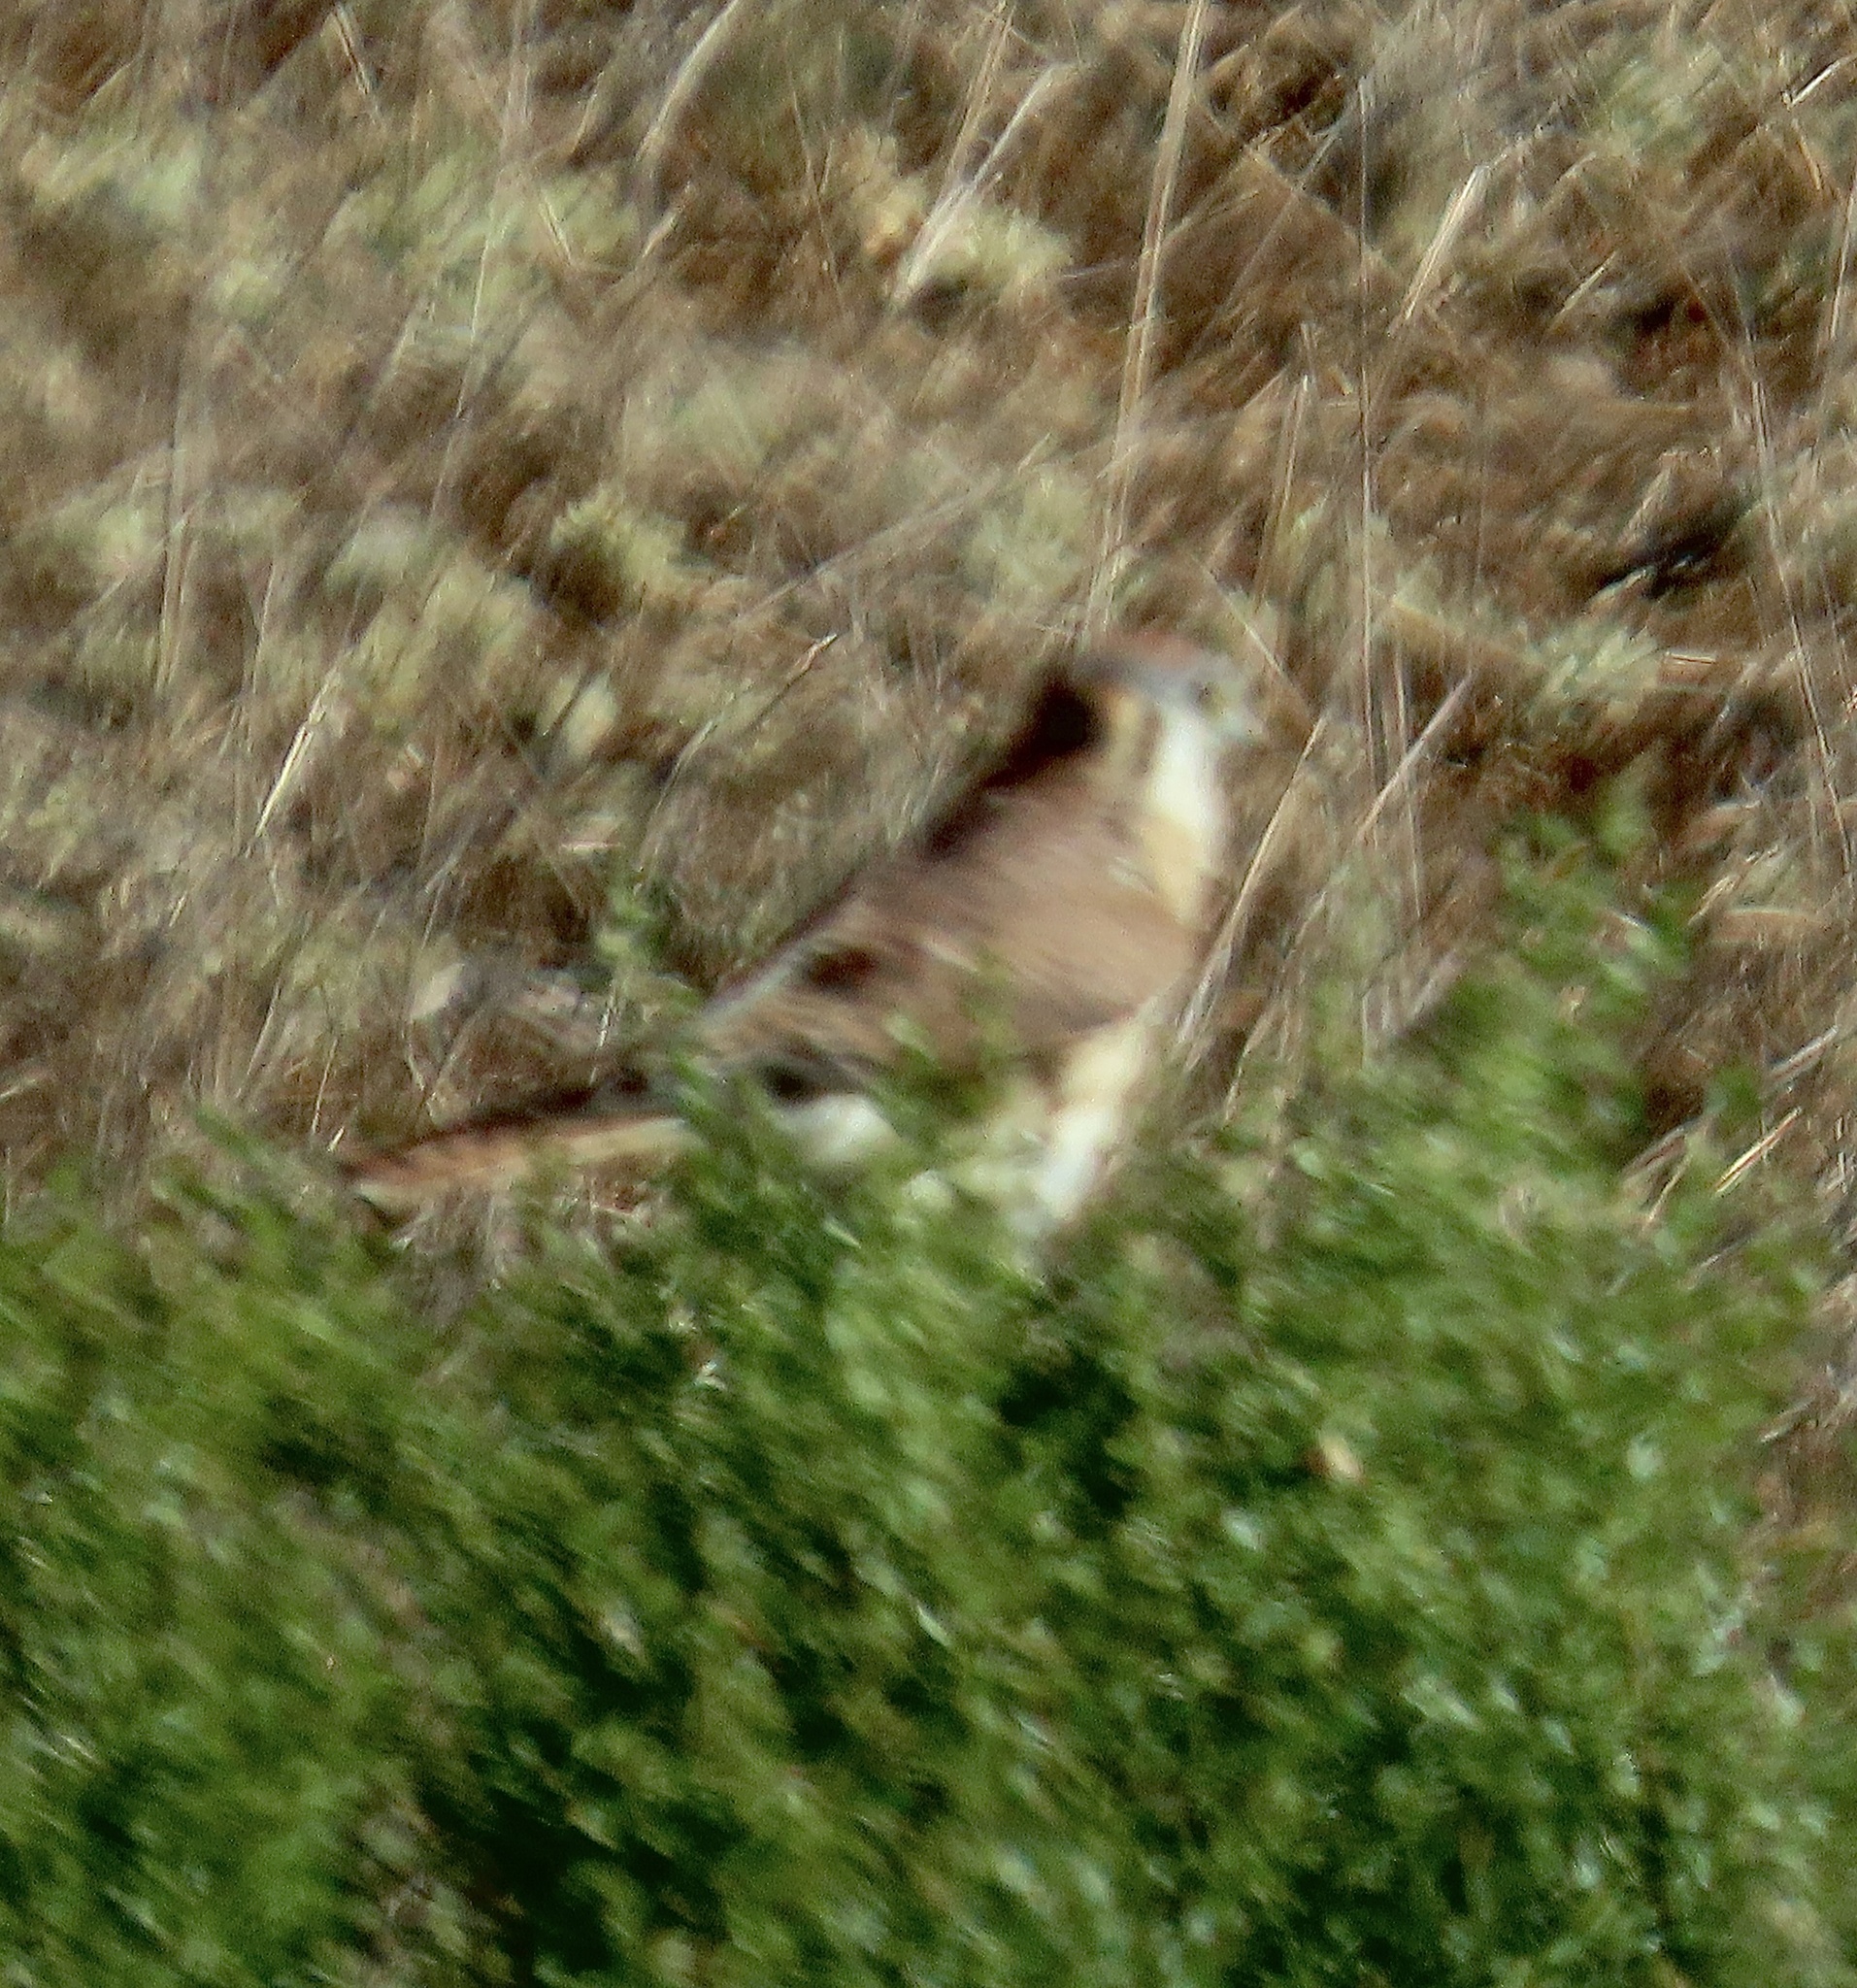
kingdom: Animalia
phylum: Chordata
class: Aves
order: Falconiformes
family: Falconidae
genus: Falco
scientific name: Falco sparverius
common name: American kestrel
